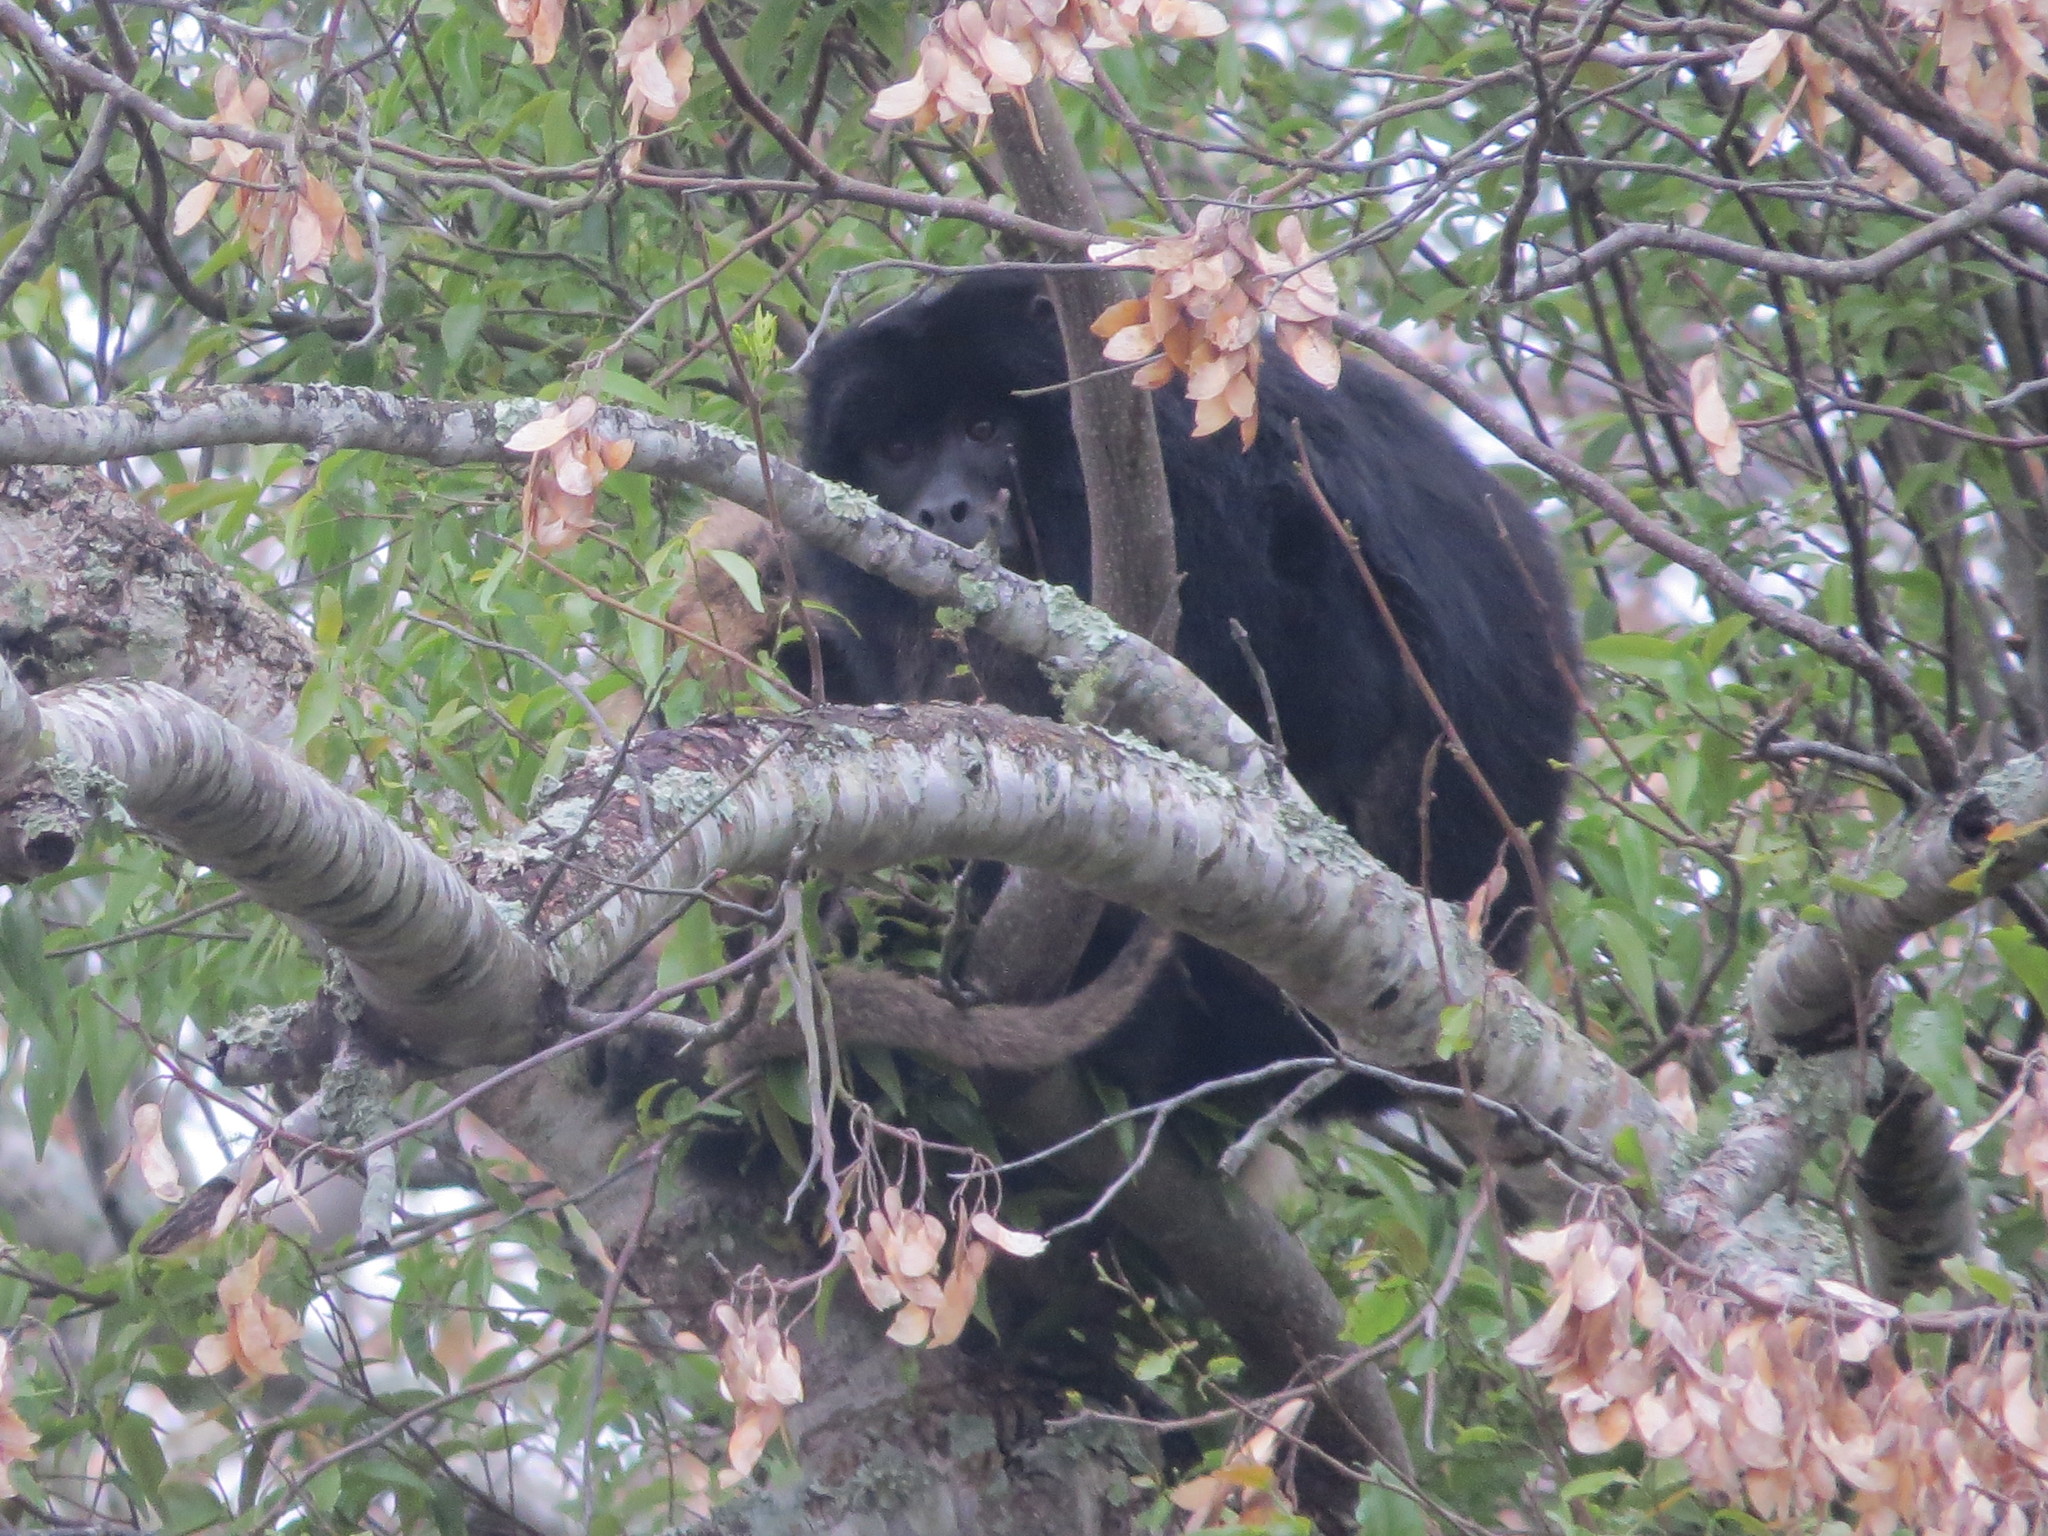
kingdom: Animalia
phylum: Chordata
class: Mammalia
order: Primates
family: Atelidae
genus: Alouatta
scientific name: Alouatta caraya
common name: Black howler
